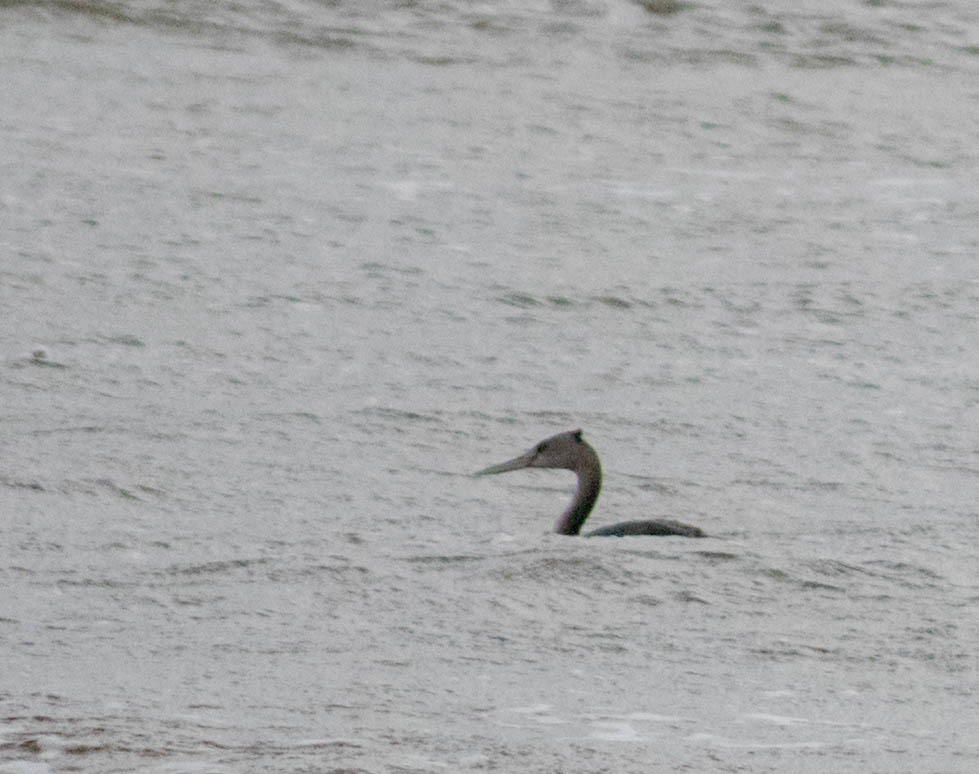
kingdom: Animalia
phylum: Chordata
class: Aves
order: Podicipediformes
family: Podicipedidae
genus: Podiceps
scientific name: Podiceps major
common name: Great grebe
